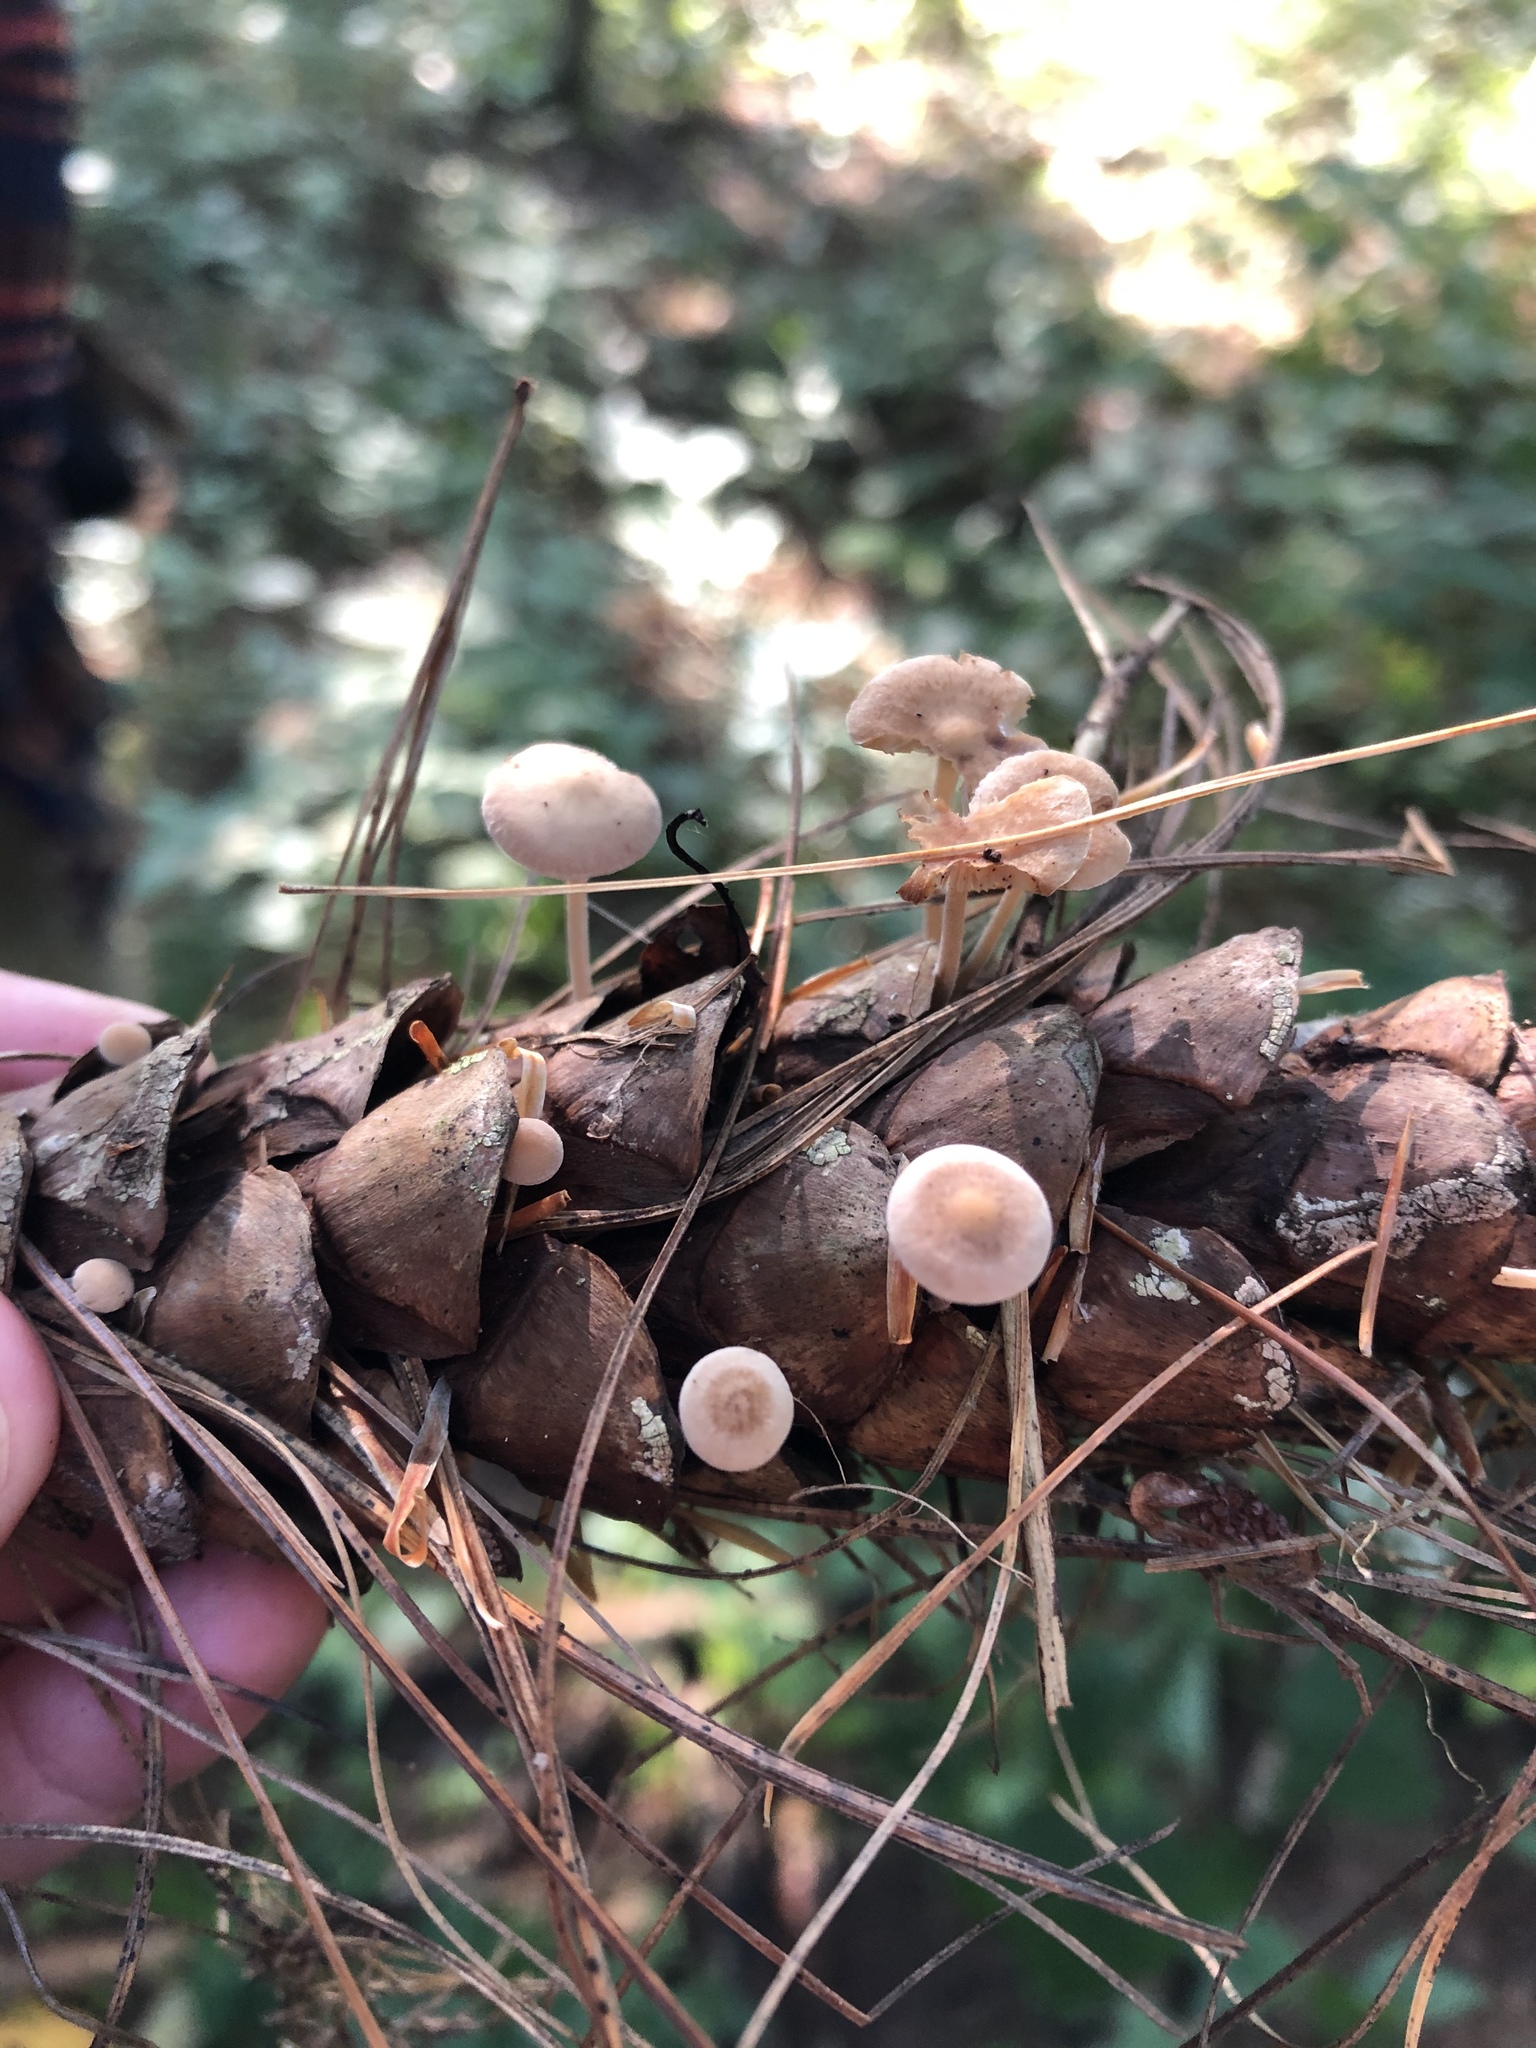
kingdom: Fungi
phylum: Basidiomycota
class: Agaricomycetes
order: Agaricales
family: Marasmiaceae
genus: Baeospora
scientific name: Baeospora myosura
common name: Conifercone cap
